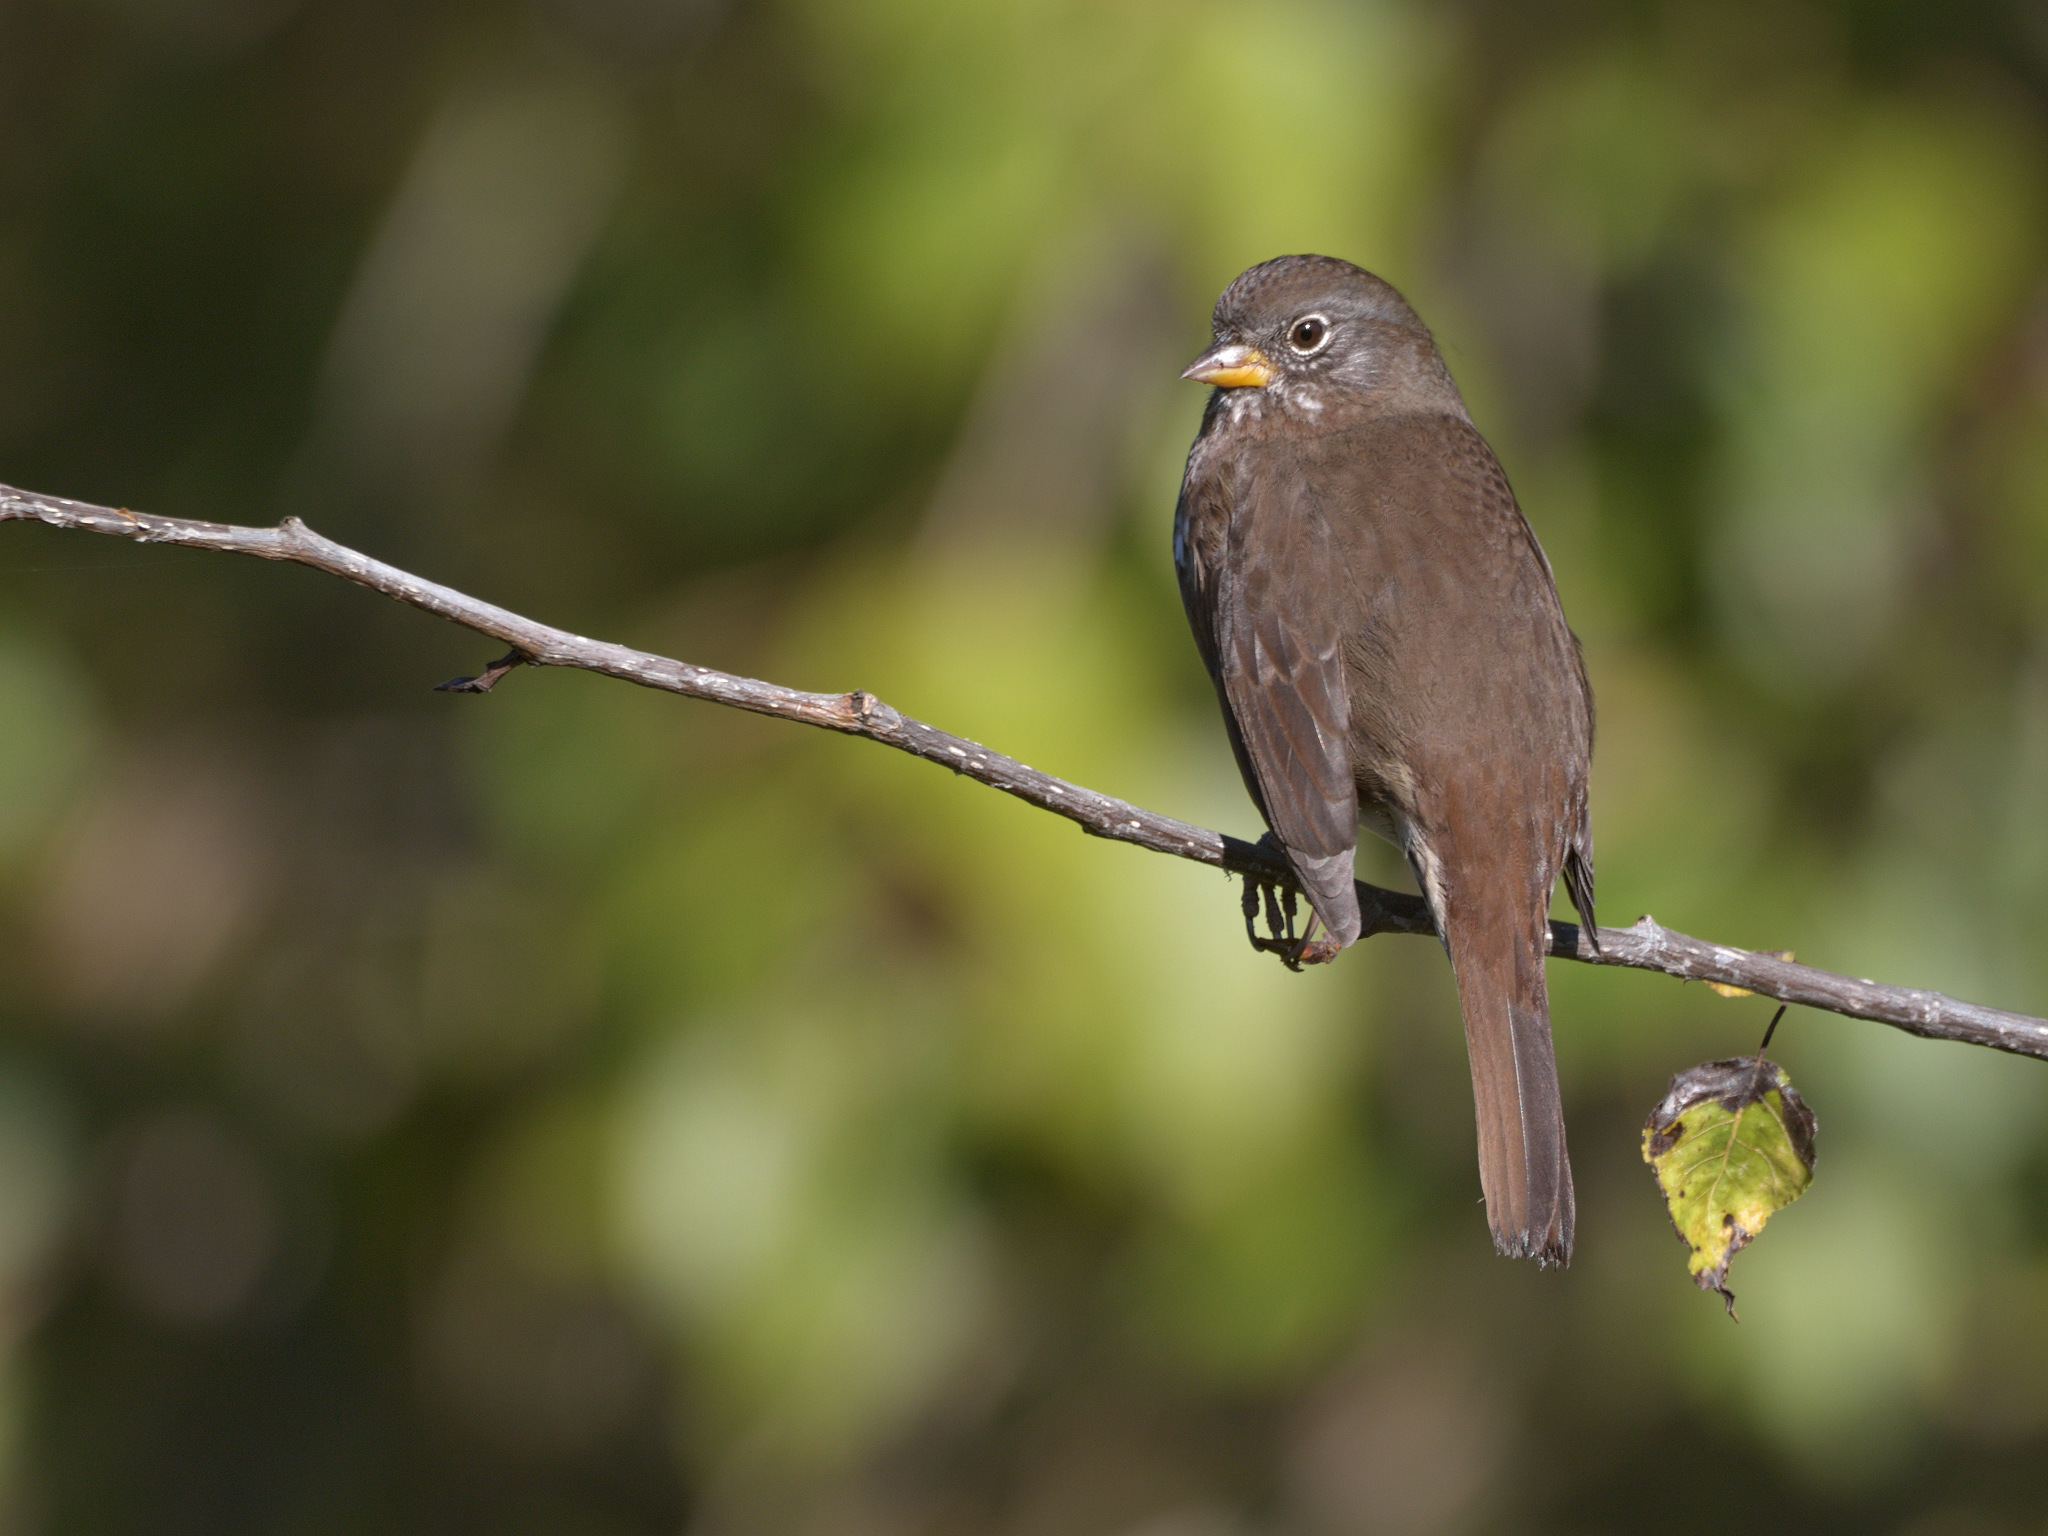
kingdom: Animalia
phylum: Chordata
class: Aves
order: Passeriformes
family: Passerellidae
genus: Passerella
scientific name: Passerella iliaca
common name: Fox sparrow
